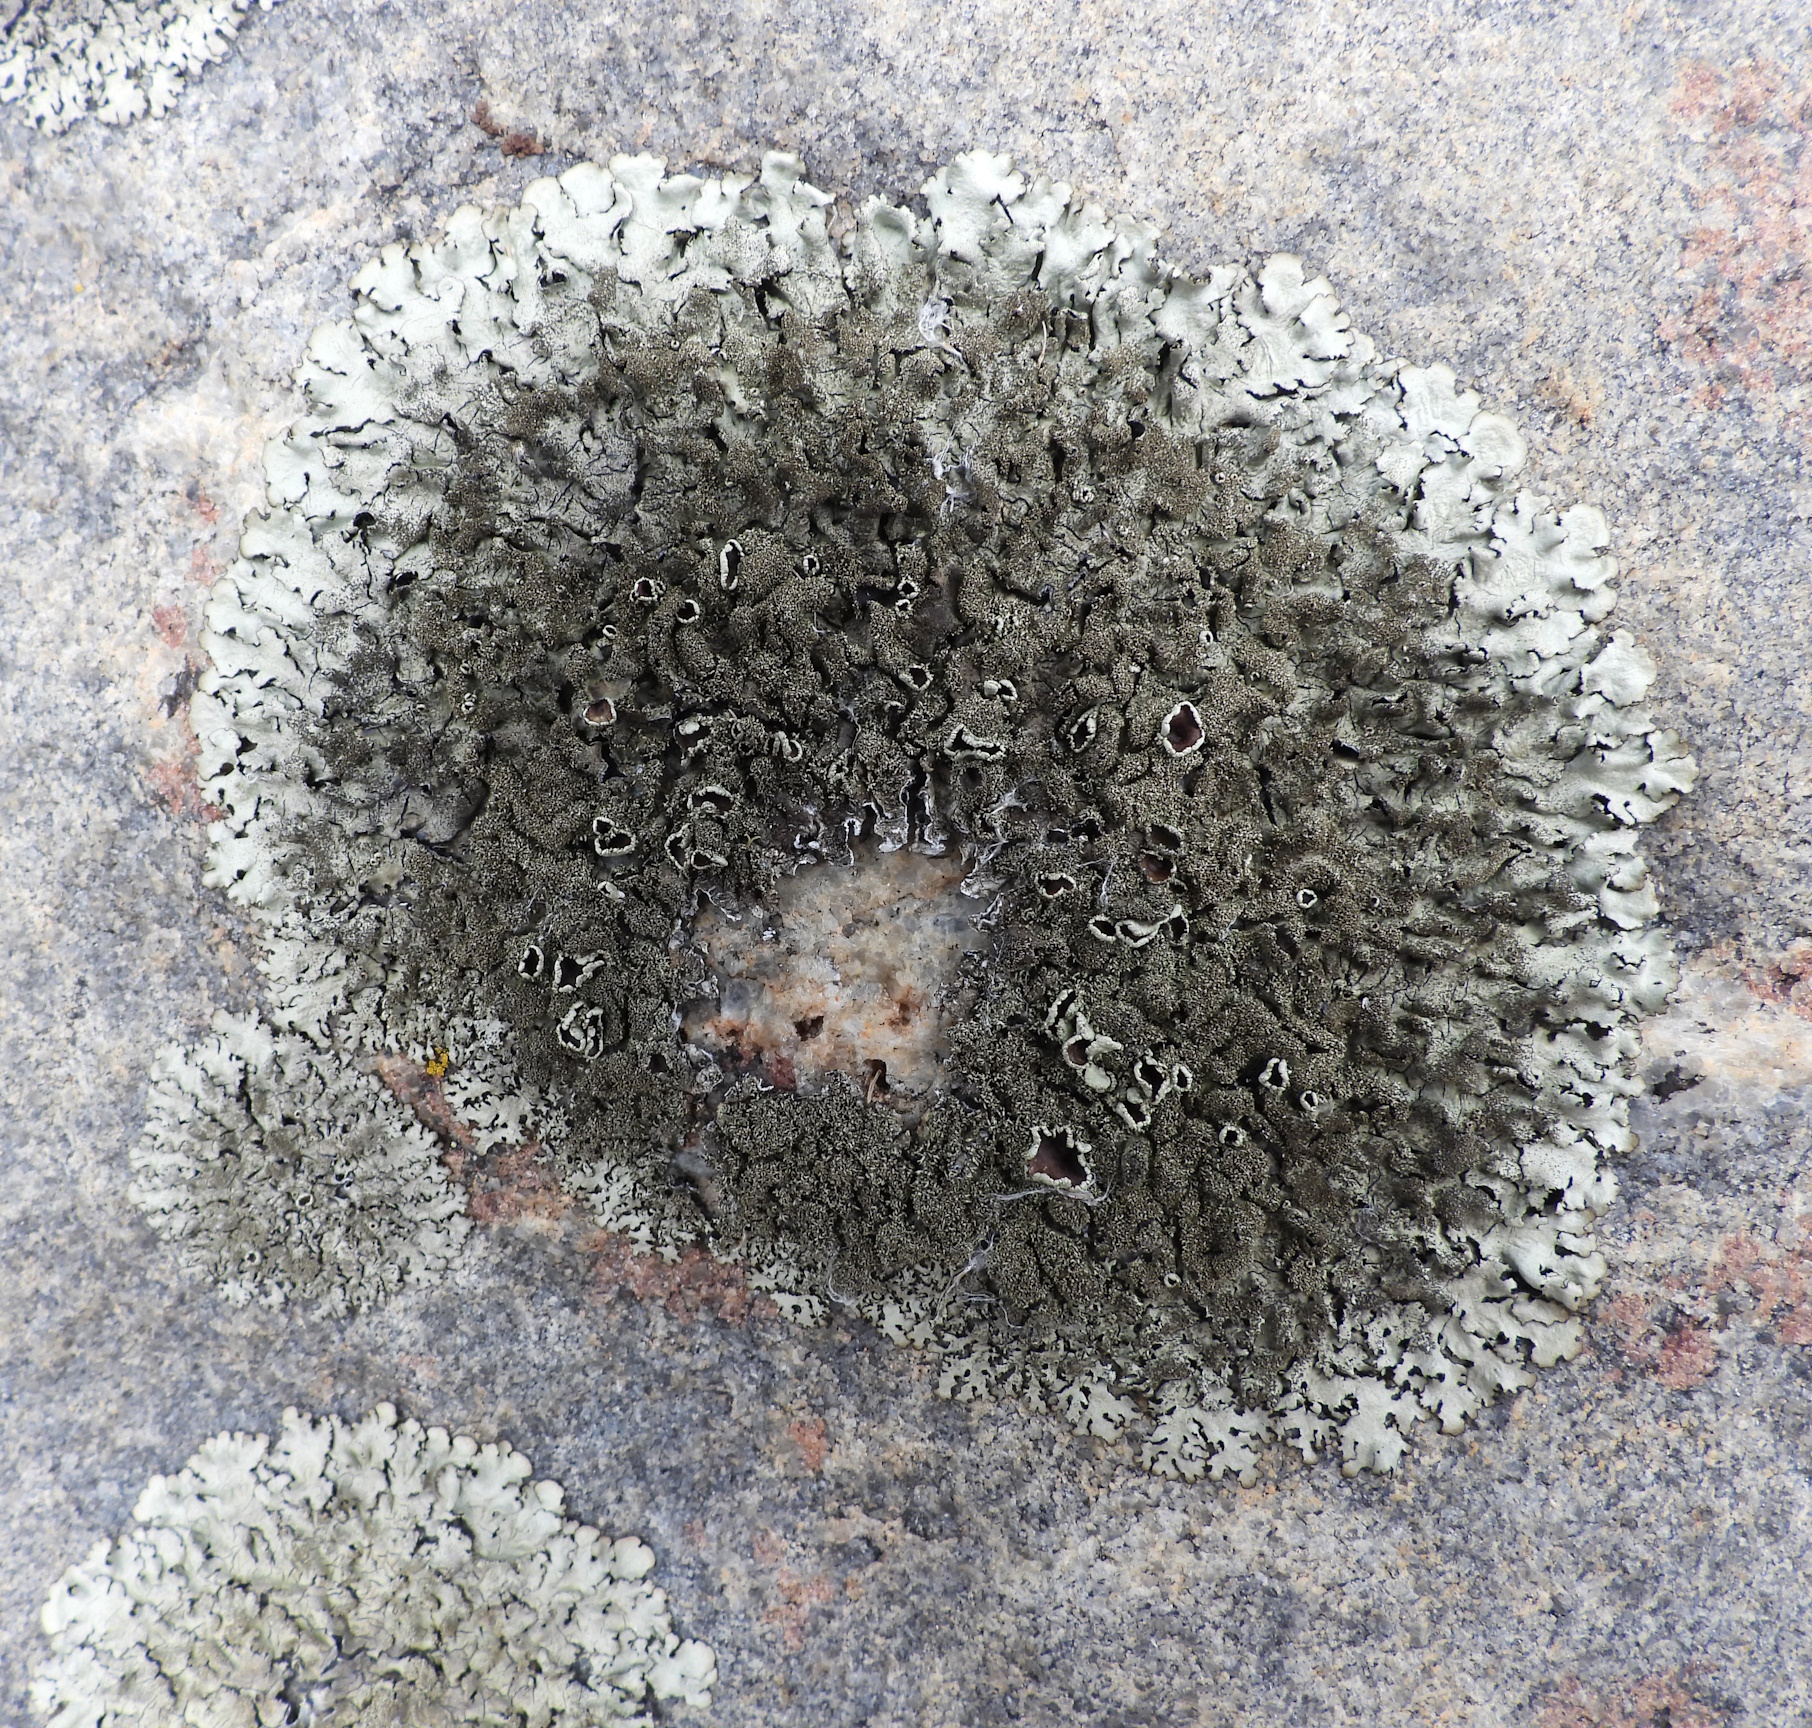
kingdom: Fungi
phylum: Ascomycota
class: Lecanoromycetes
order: Lecanorales
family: Parmeliaceae
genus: Xanthoparmelia
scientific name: Xanthoparmelia conspersa
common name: Peppered rock shield
